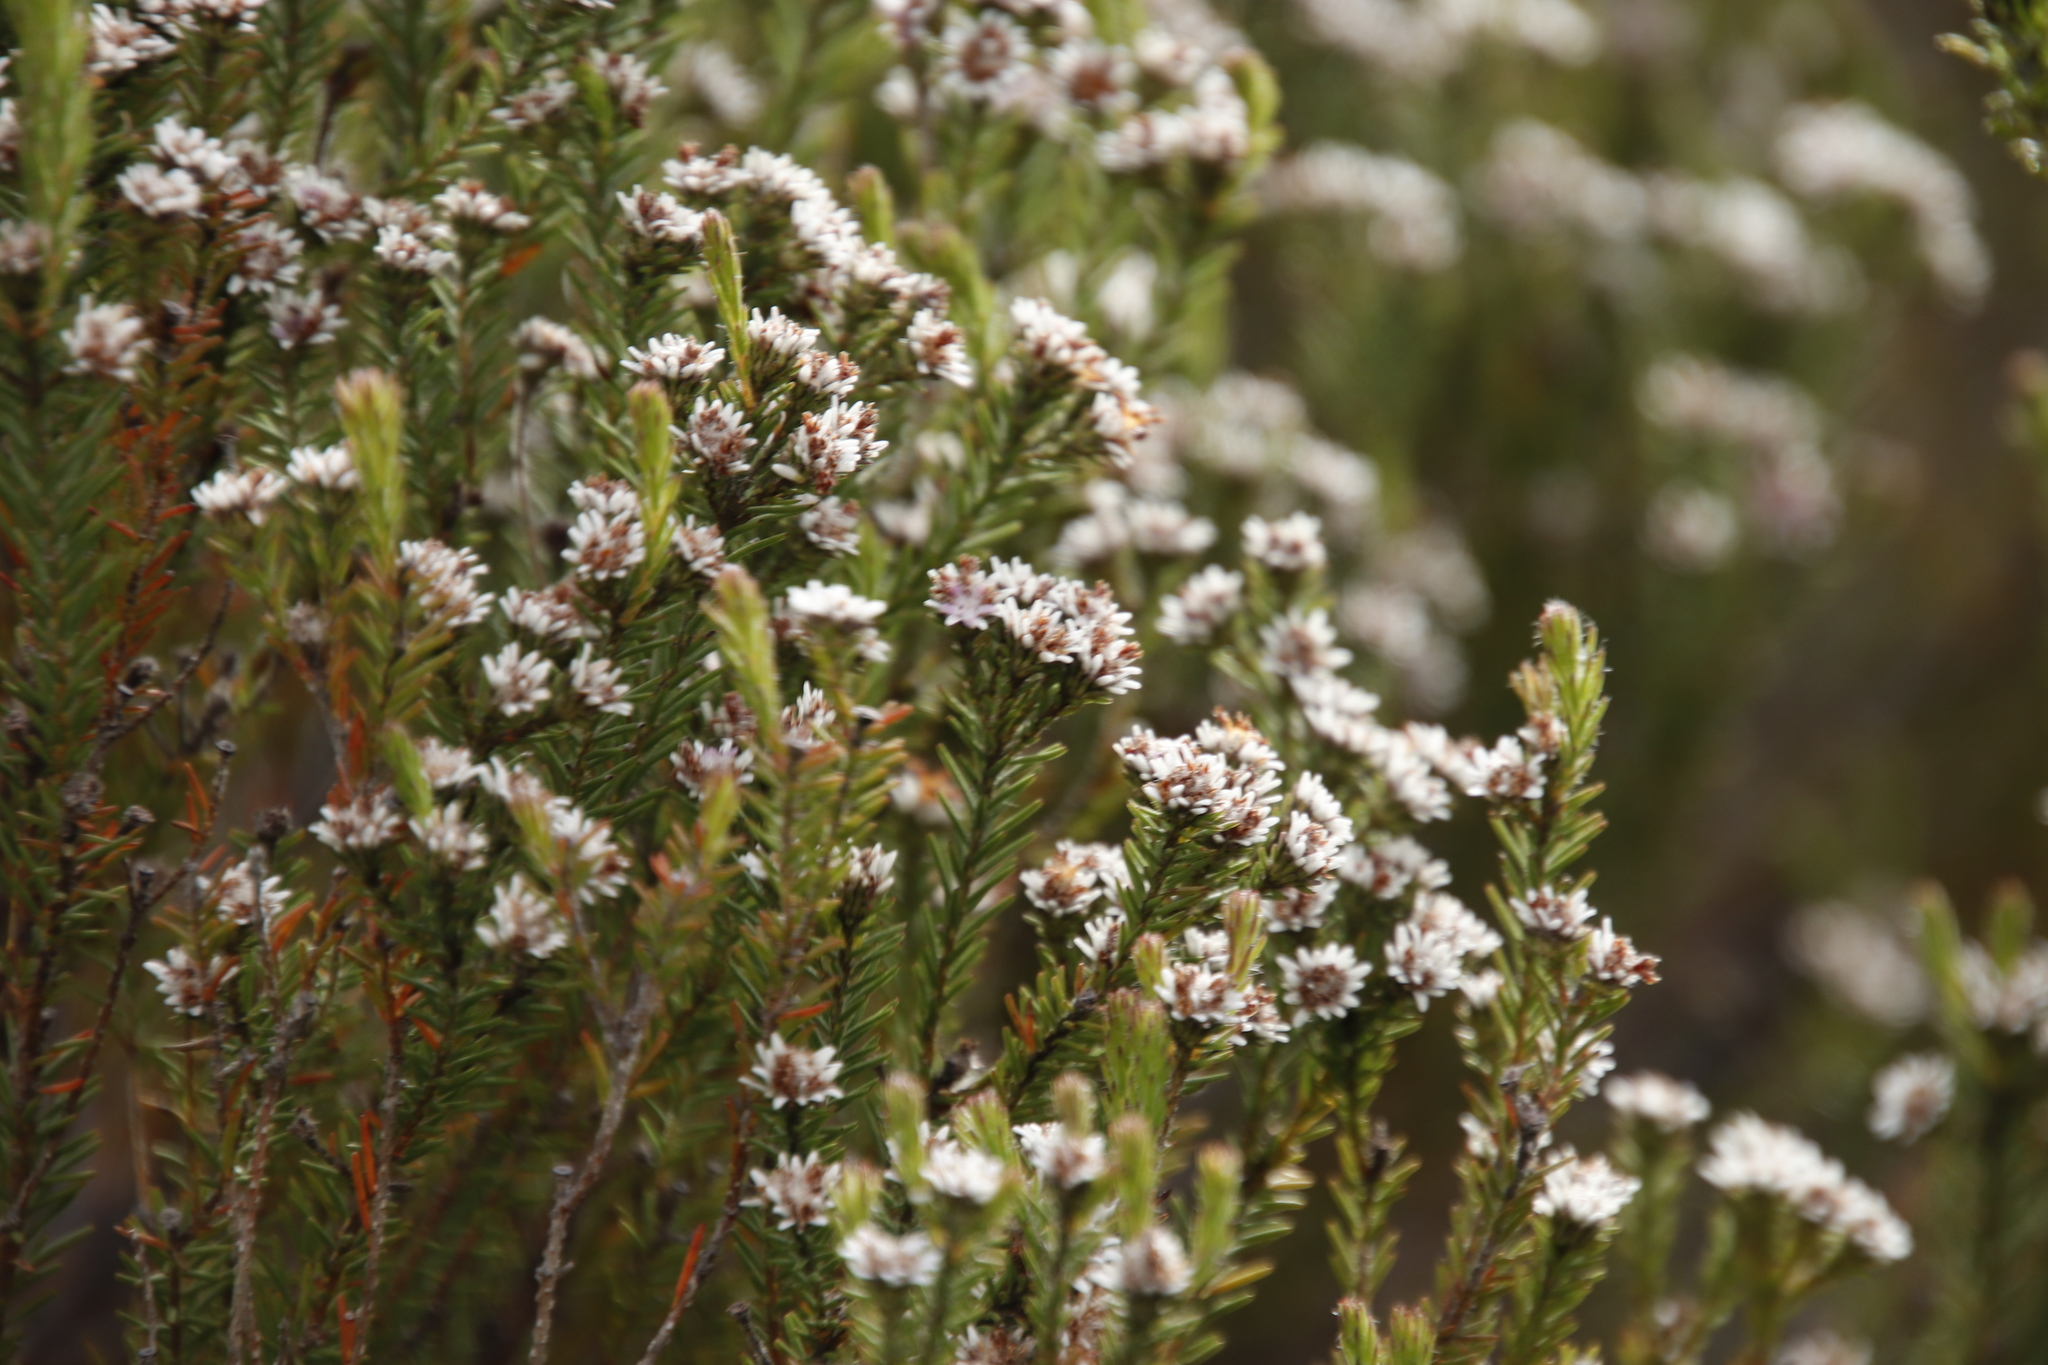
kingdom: Plantae
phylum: Tracheophyta
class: Magnoliopsida
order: Bruniales
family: Bruniaceae
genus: Staavia
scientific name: Staavia radiata
